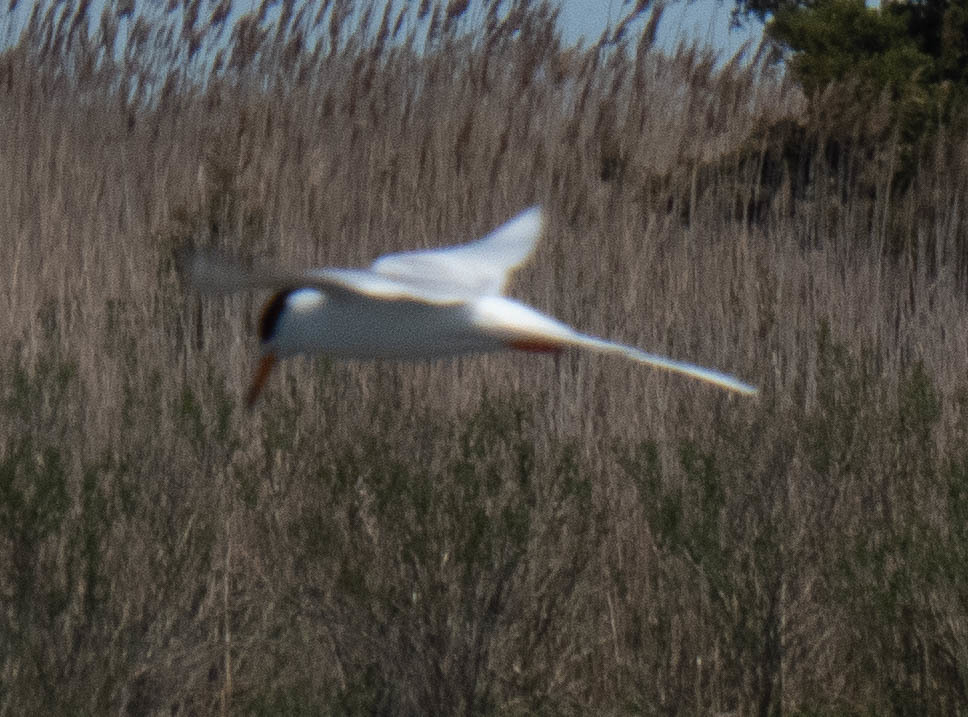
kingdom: Animalia
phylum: Chordata
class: Aves
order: Charadriiformes
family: Laridae
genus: Sterna
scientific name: Sterna forsteri
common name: Forster's tern
